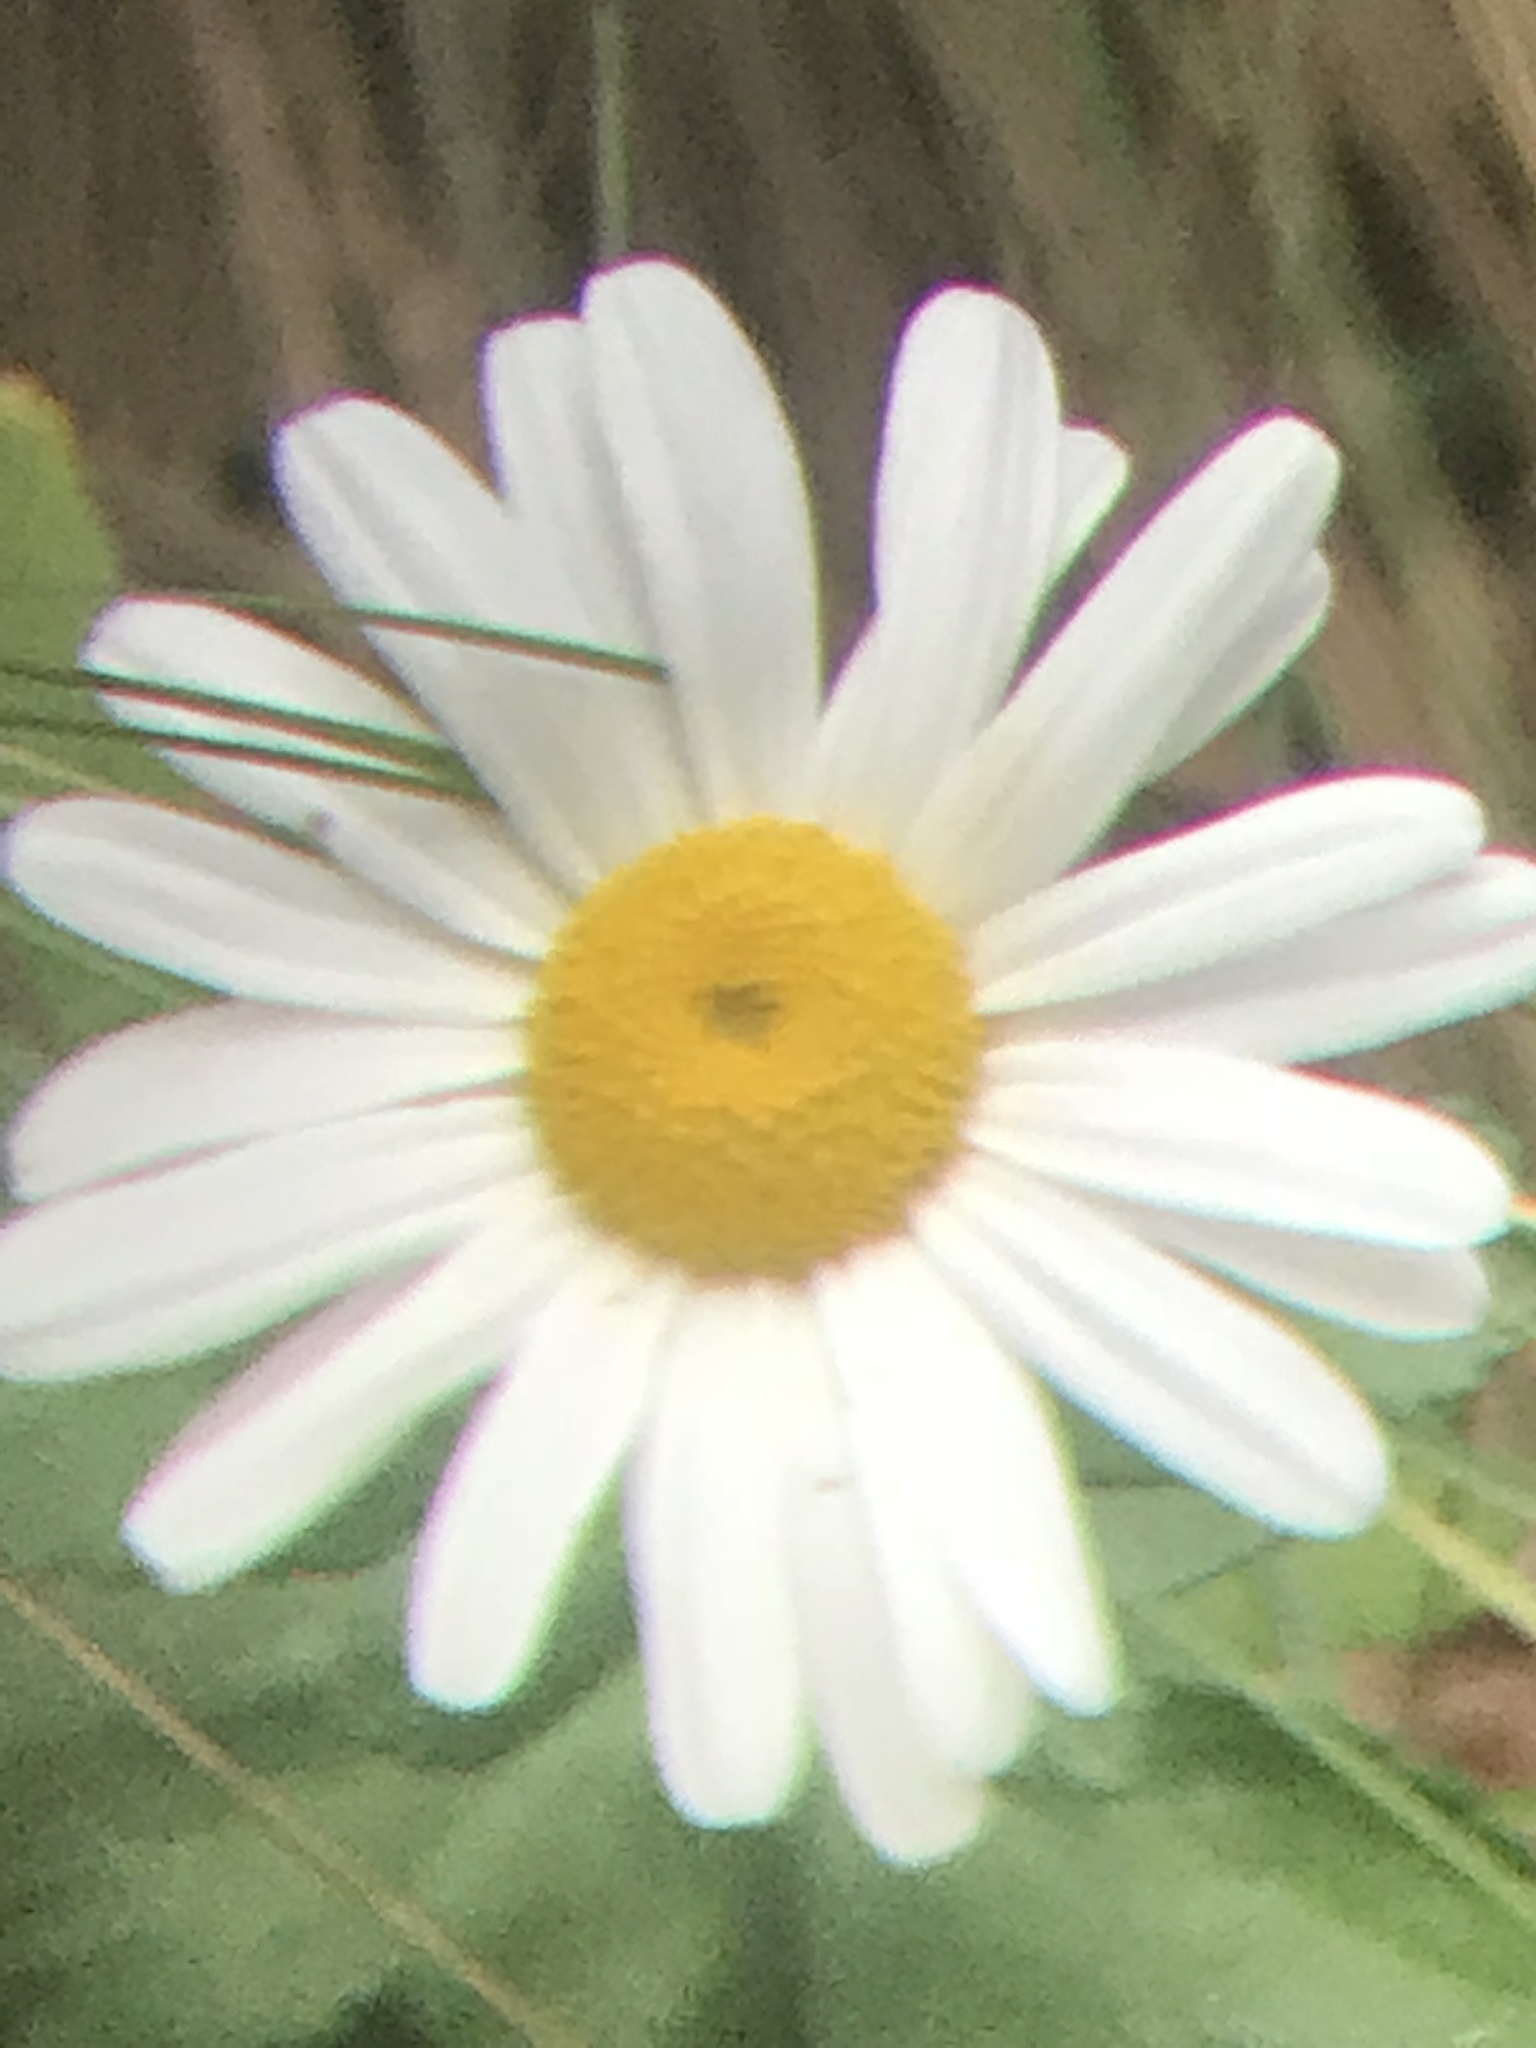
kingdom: Plantae
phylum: Tracheophyta
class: Magnoliopsida
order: Asterales
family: Asteraceae
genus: Leucanthemum
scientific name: Leucanthemum vulgare
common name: Oxeye daisy
